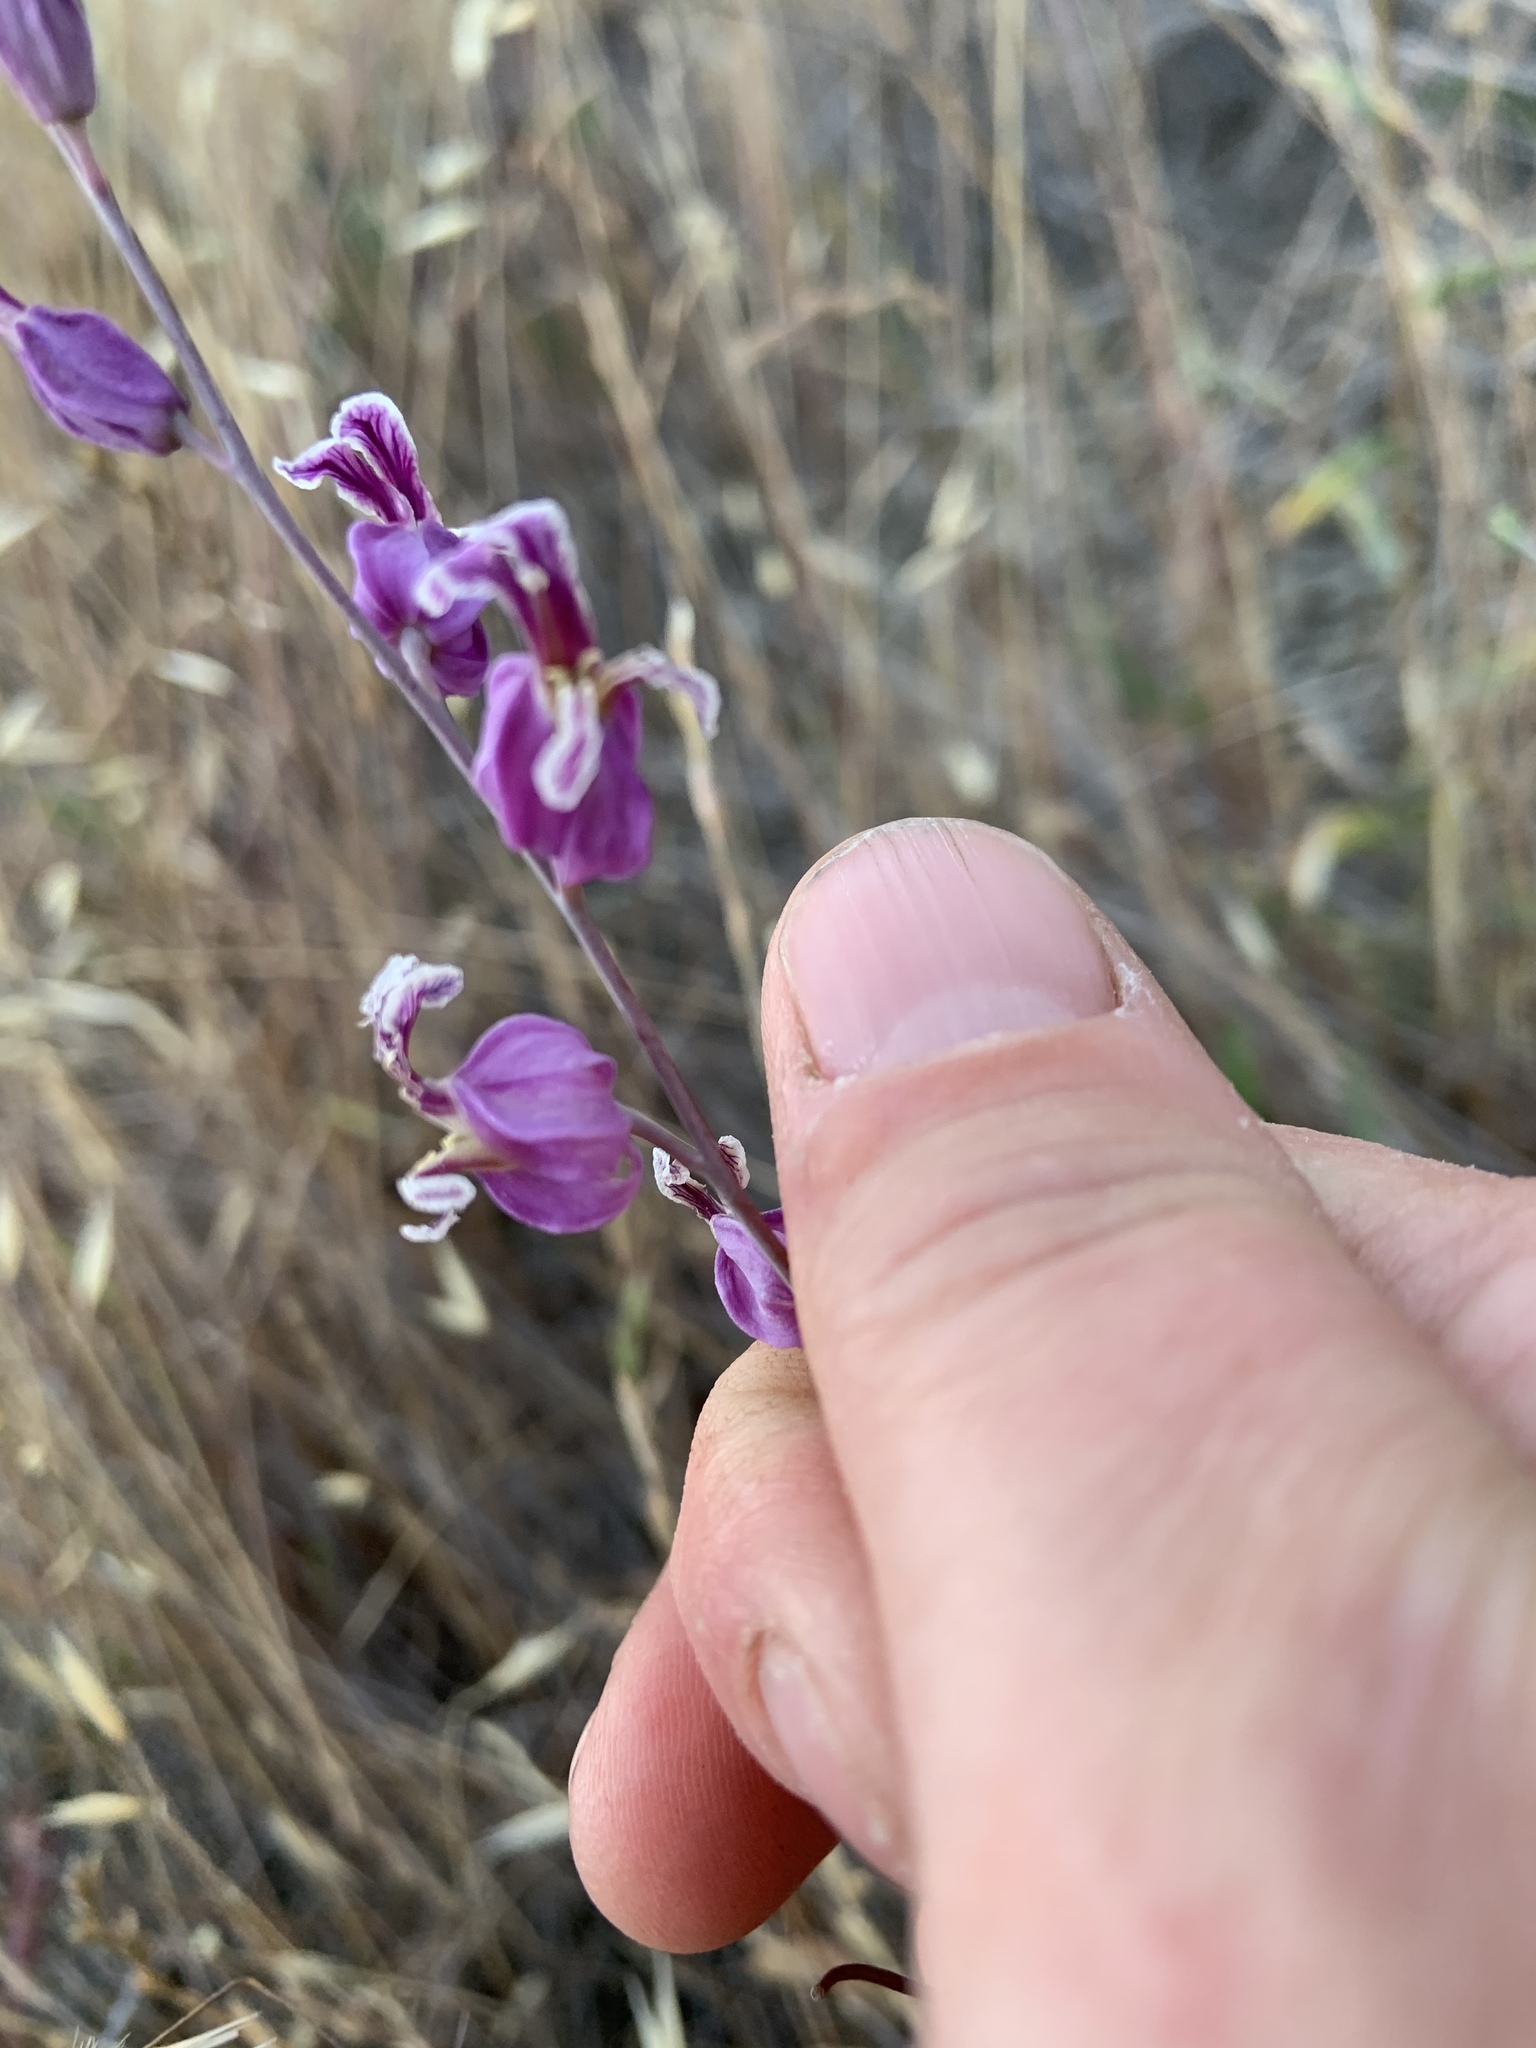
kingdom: Plantae
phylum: Tracheophyta
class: Magnoliopsida
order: Brassicales
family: Brassicaceae
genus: Streptanthus
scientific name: Streptanthus glandulosus
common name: Jewel-flower
